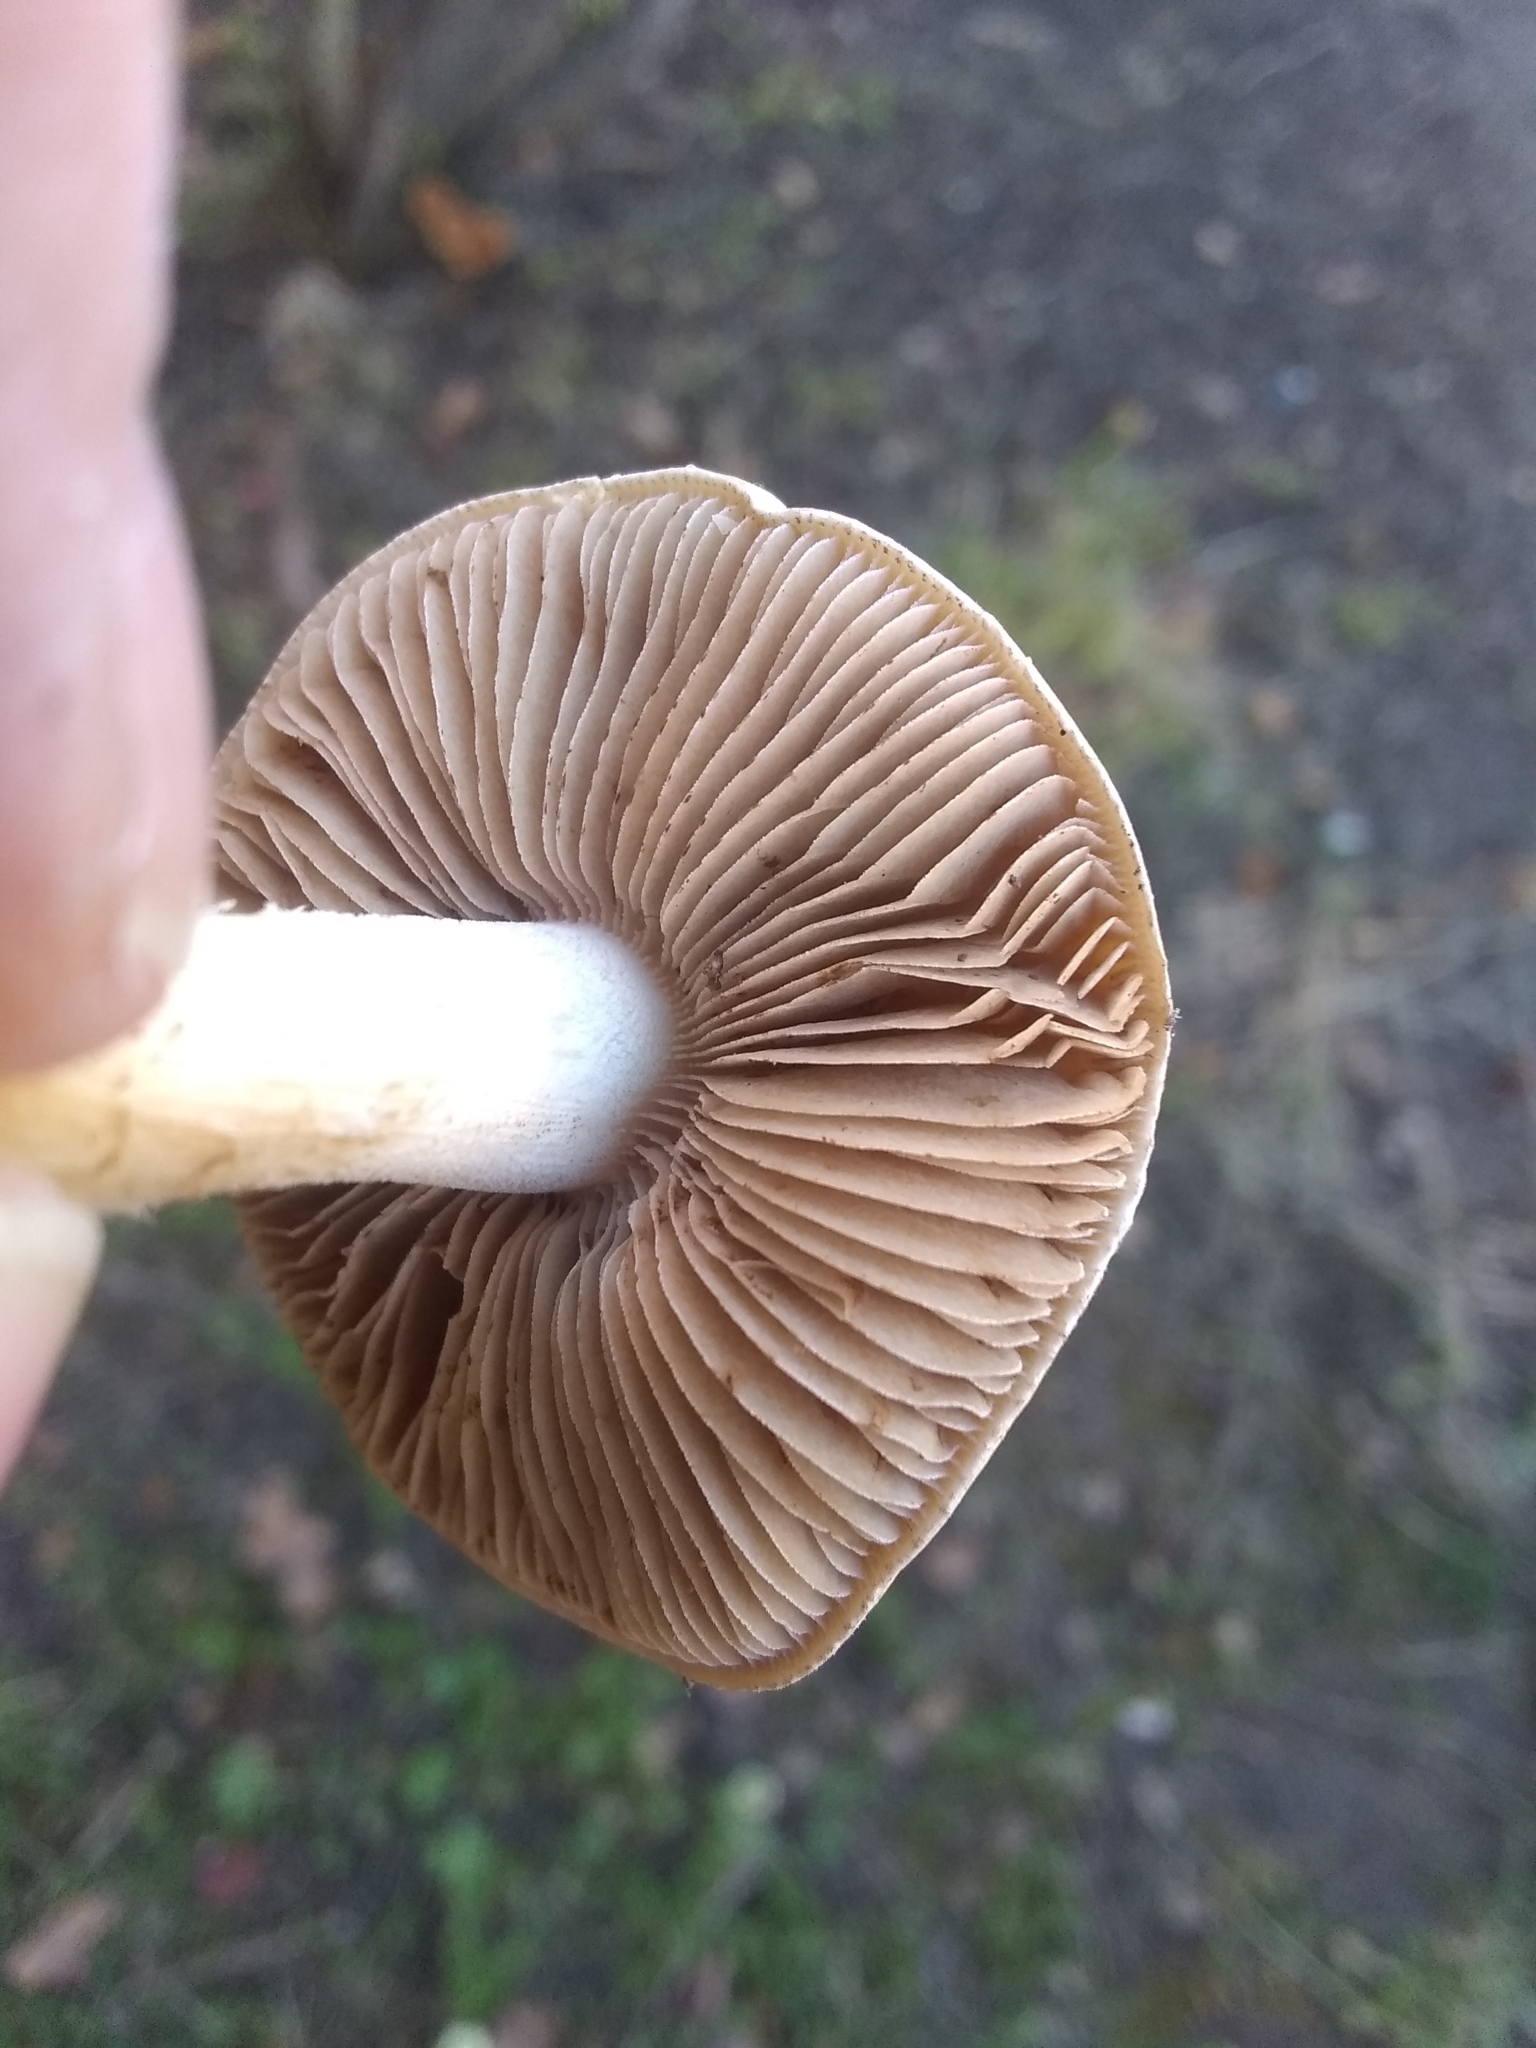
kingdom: Fungi
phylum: Basidiomycota
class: Agaricomycetes
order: Agaricales
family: Hymenogastraceae
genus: Hebeloma
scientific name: Hebeloma crustuliniforme
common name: Poison pie
